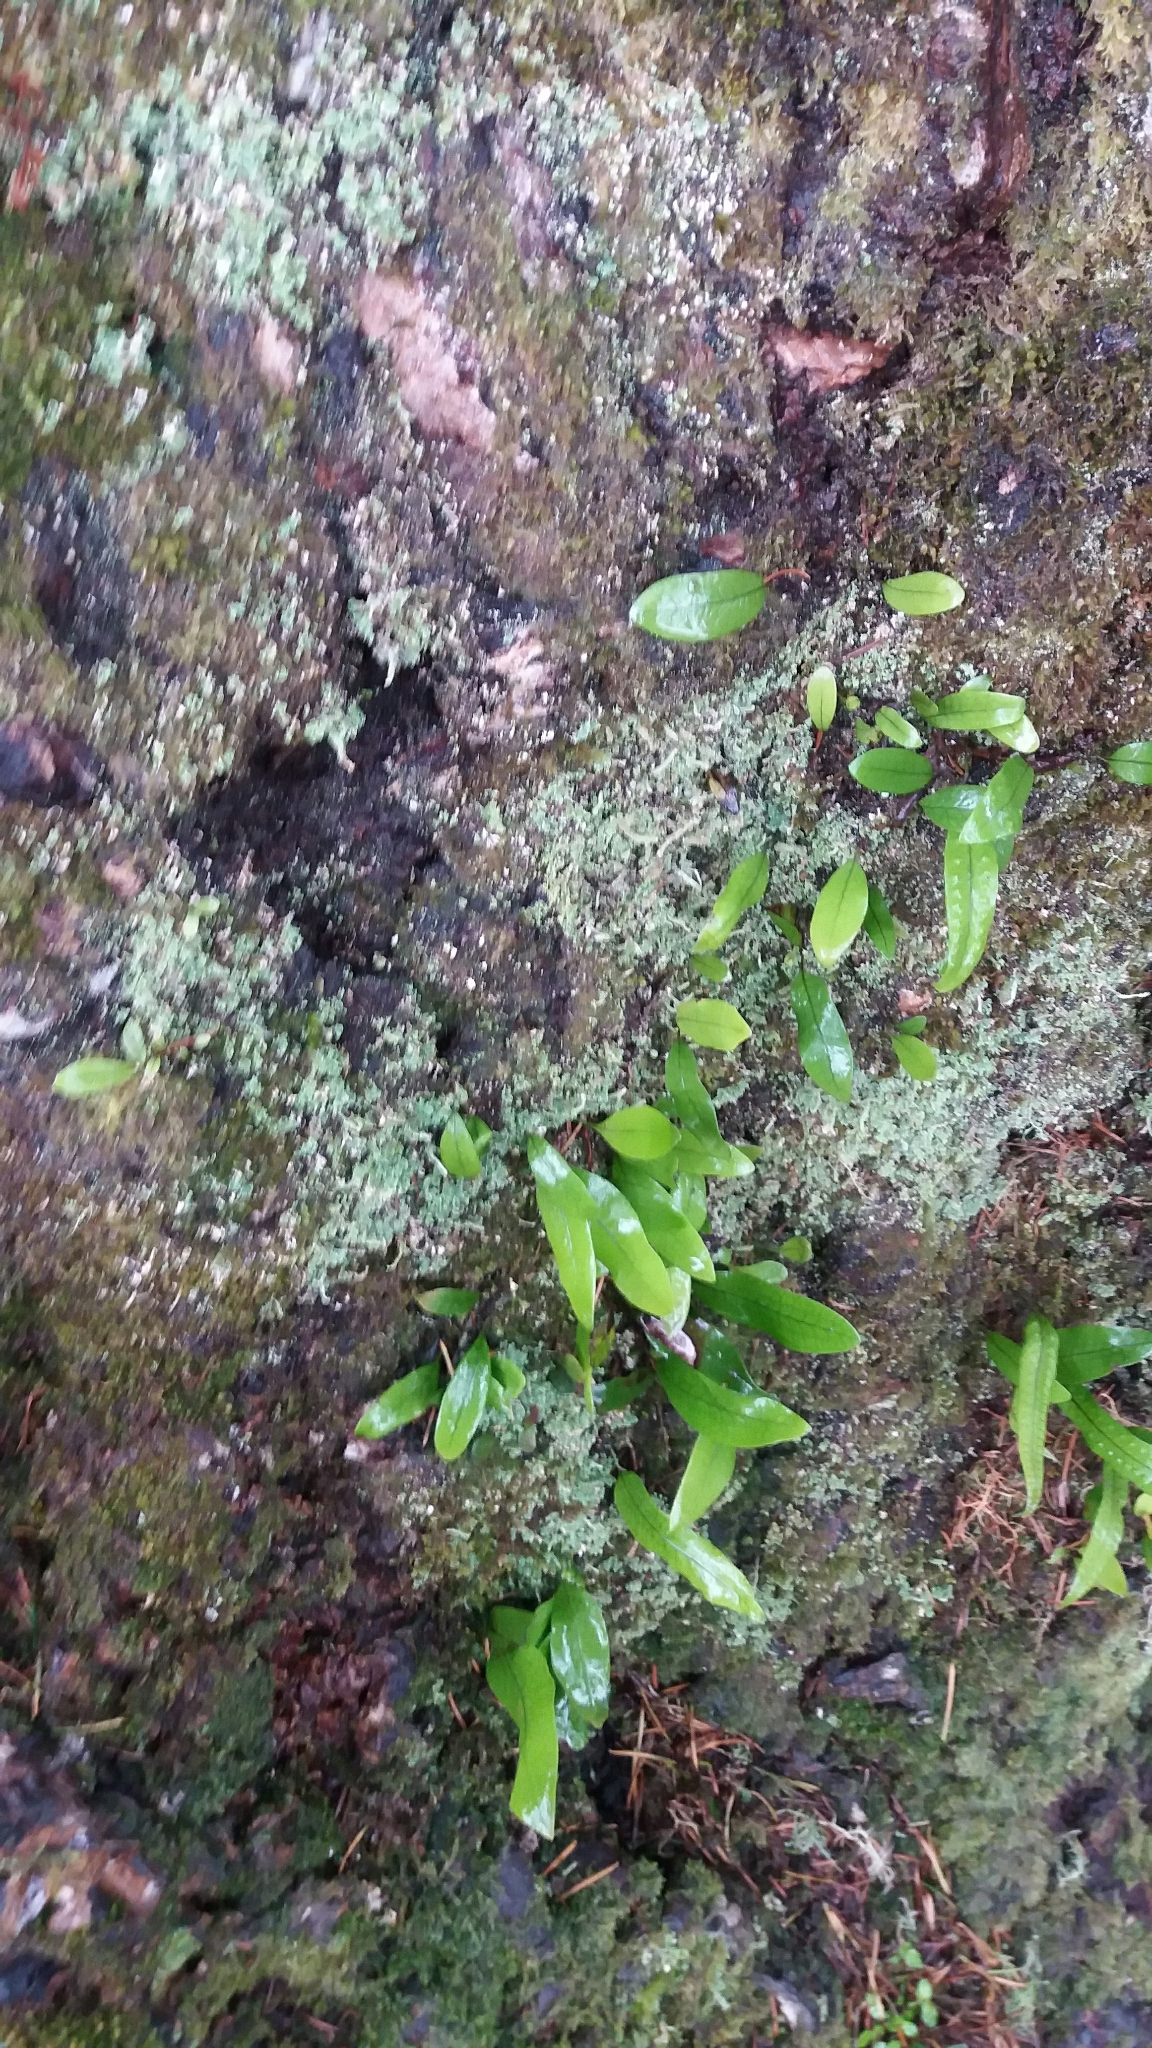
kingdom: Plantae
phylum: Tracheophyta
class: Polypodiopsida
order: Polypodiales
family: Polypodiaceae
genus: Lecanopteris
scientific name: Lecanopteris pustulata
